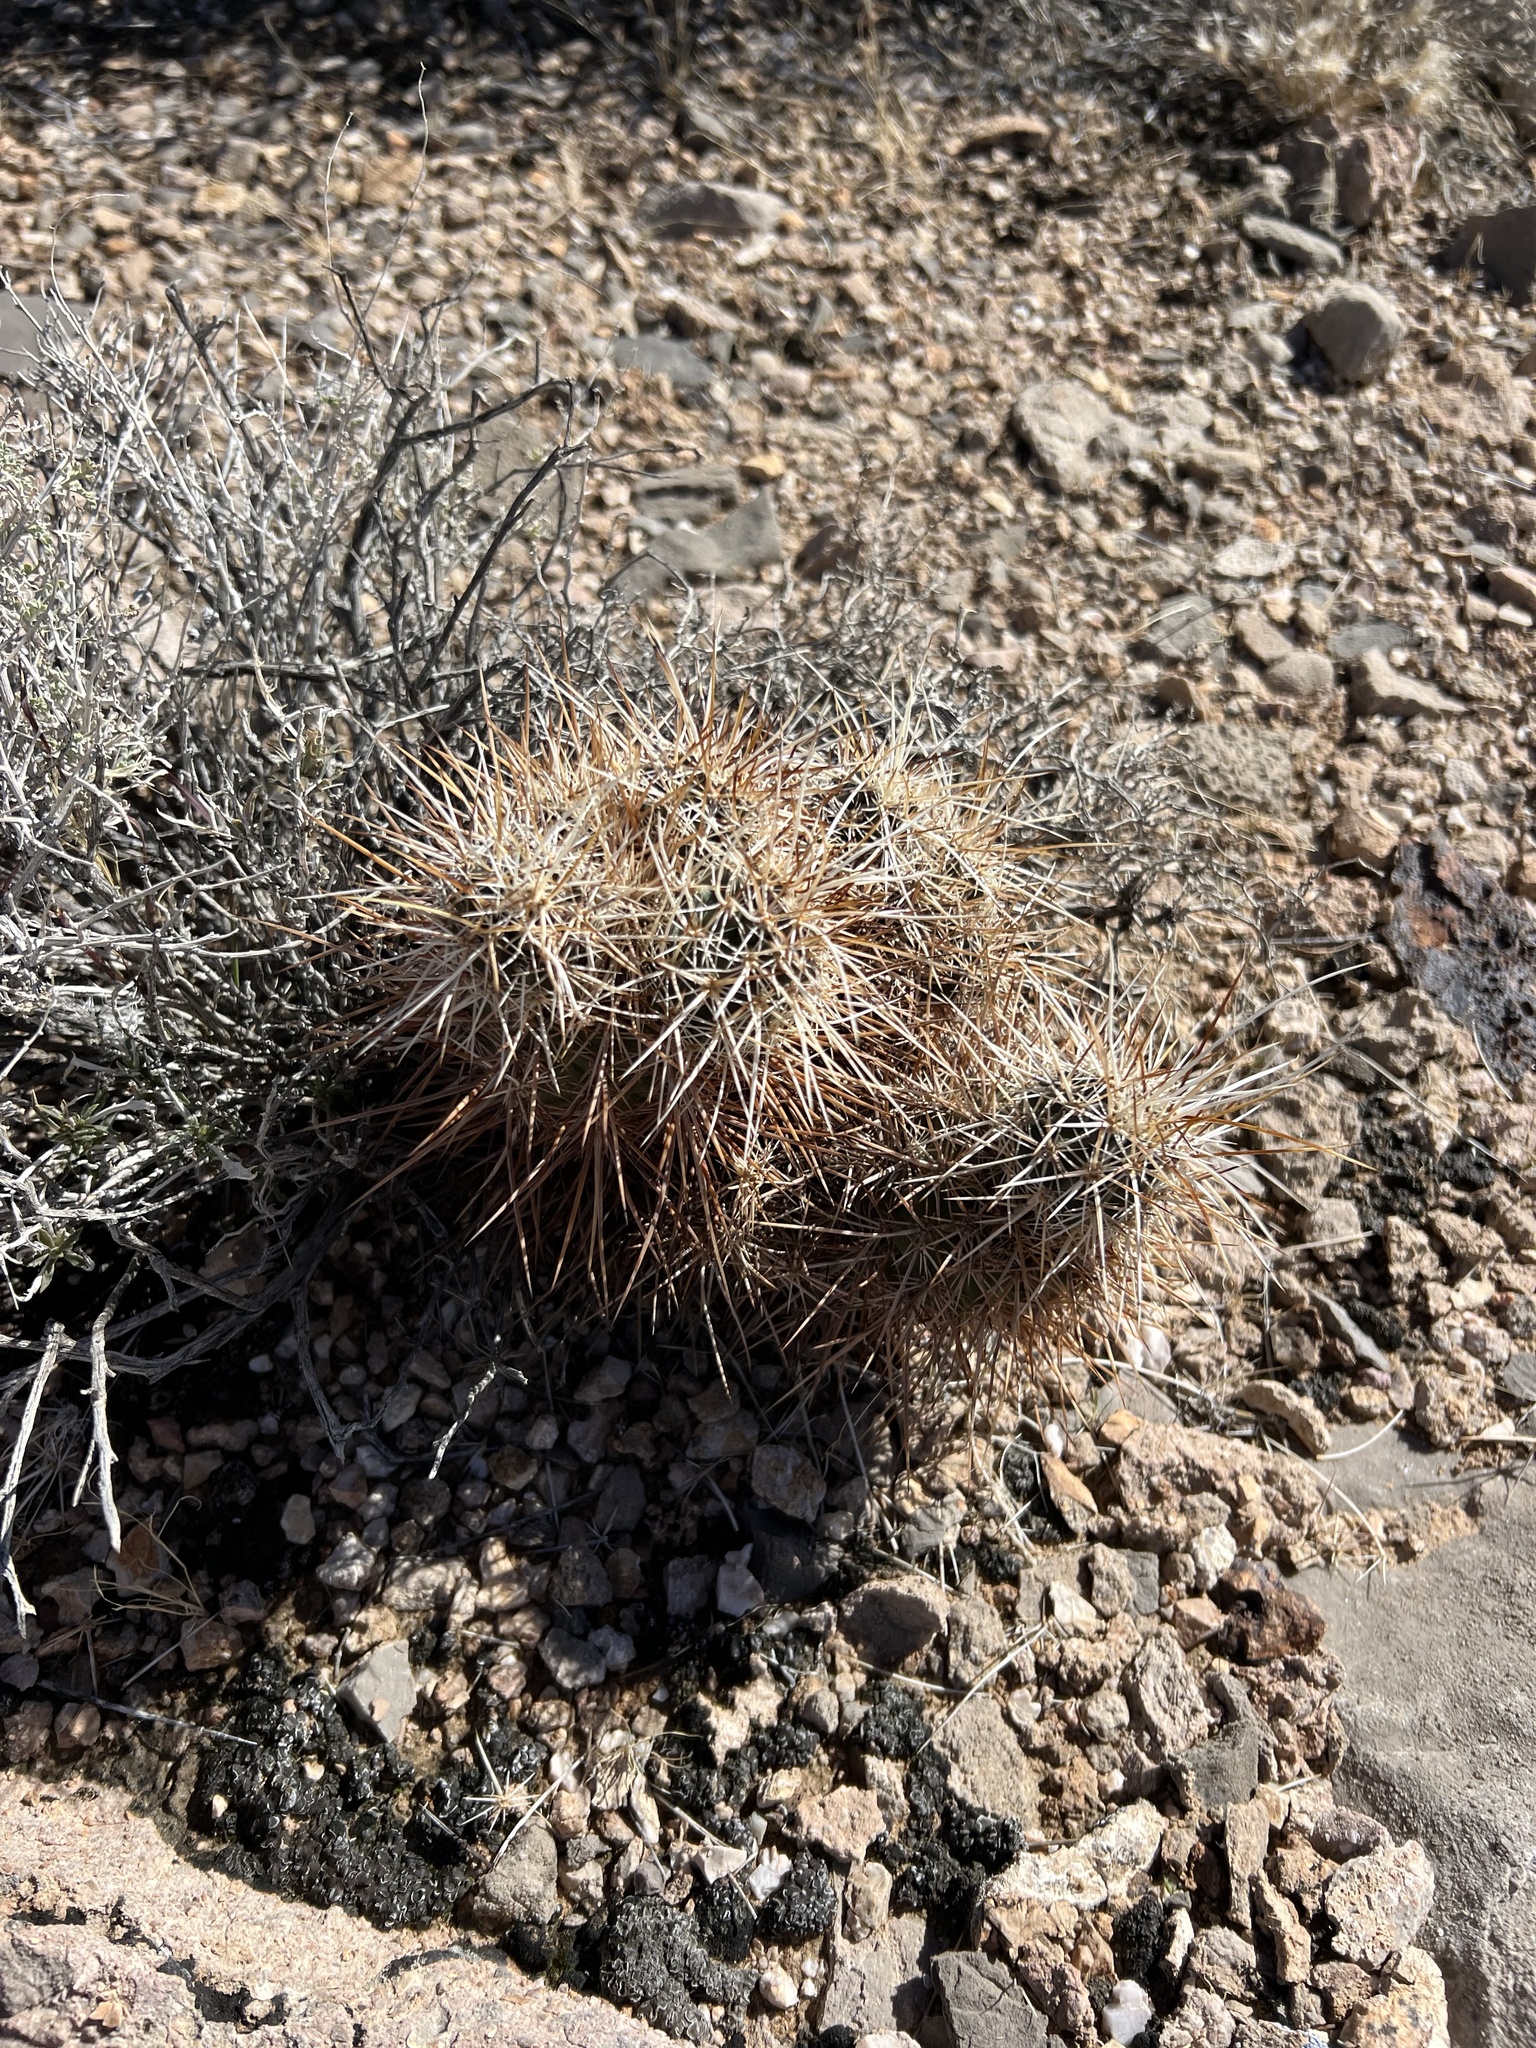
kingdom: Plantae
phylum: Tracheophyta
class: Magnoliopsida
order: Caryophyllales
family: Cactaceae
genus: Echinocereus
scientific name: Echinocereus engelmannii
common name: Engelmann's hedgehog cactus
